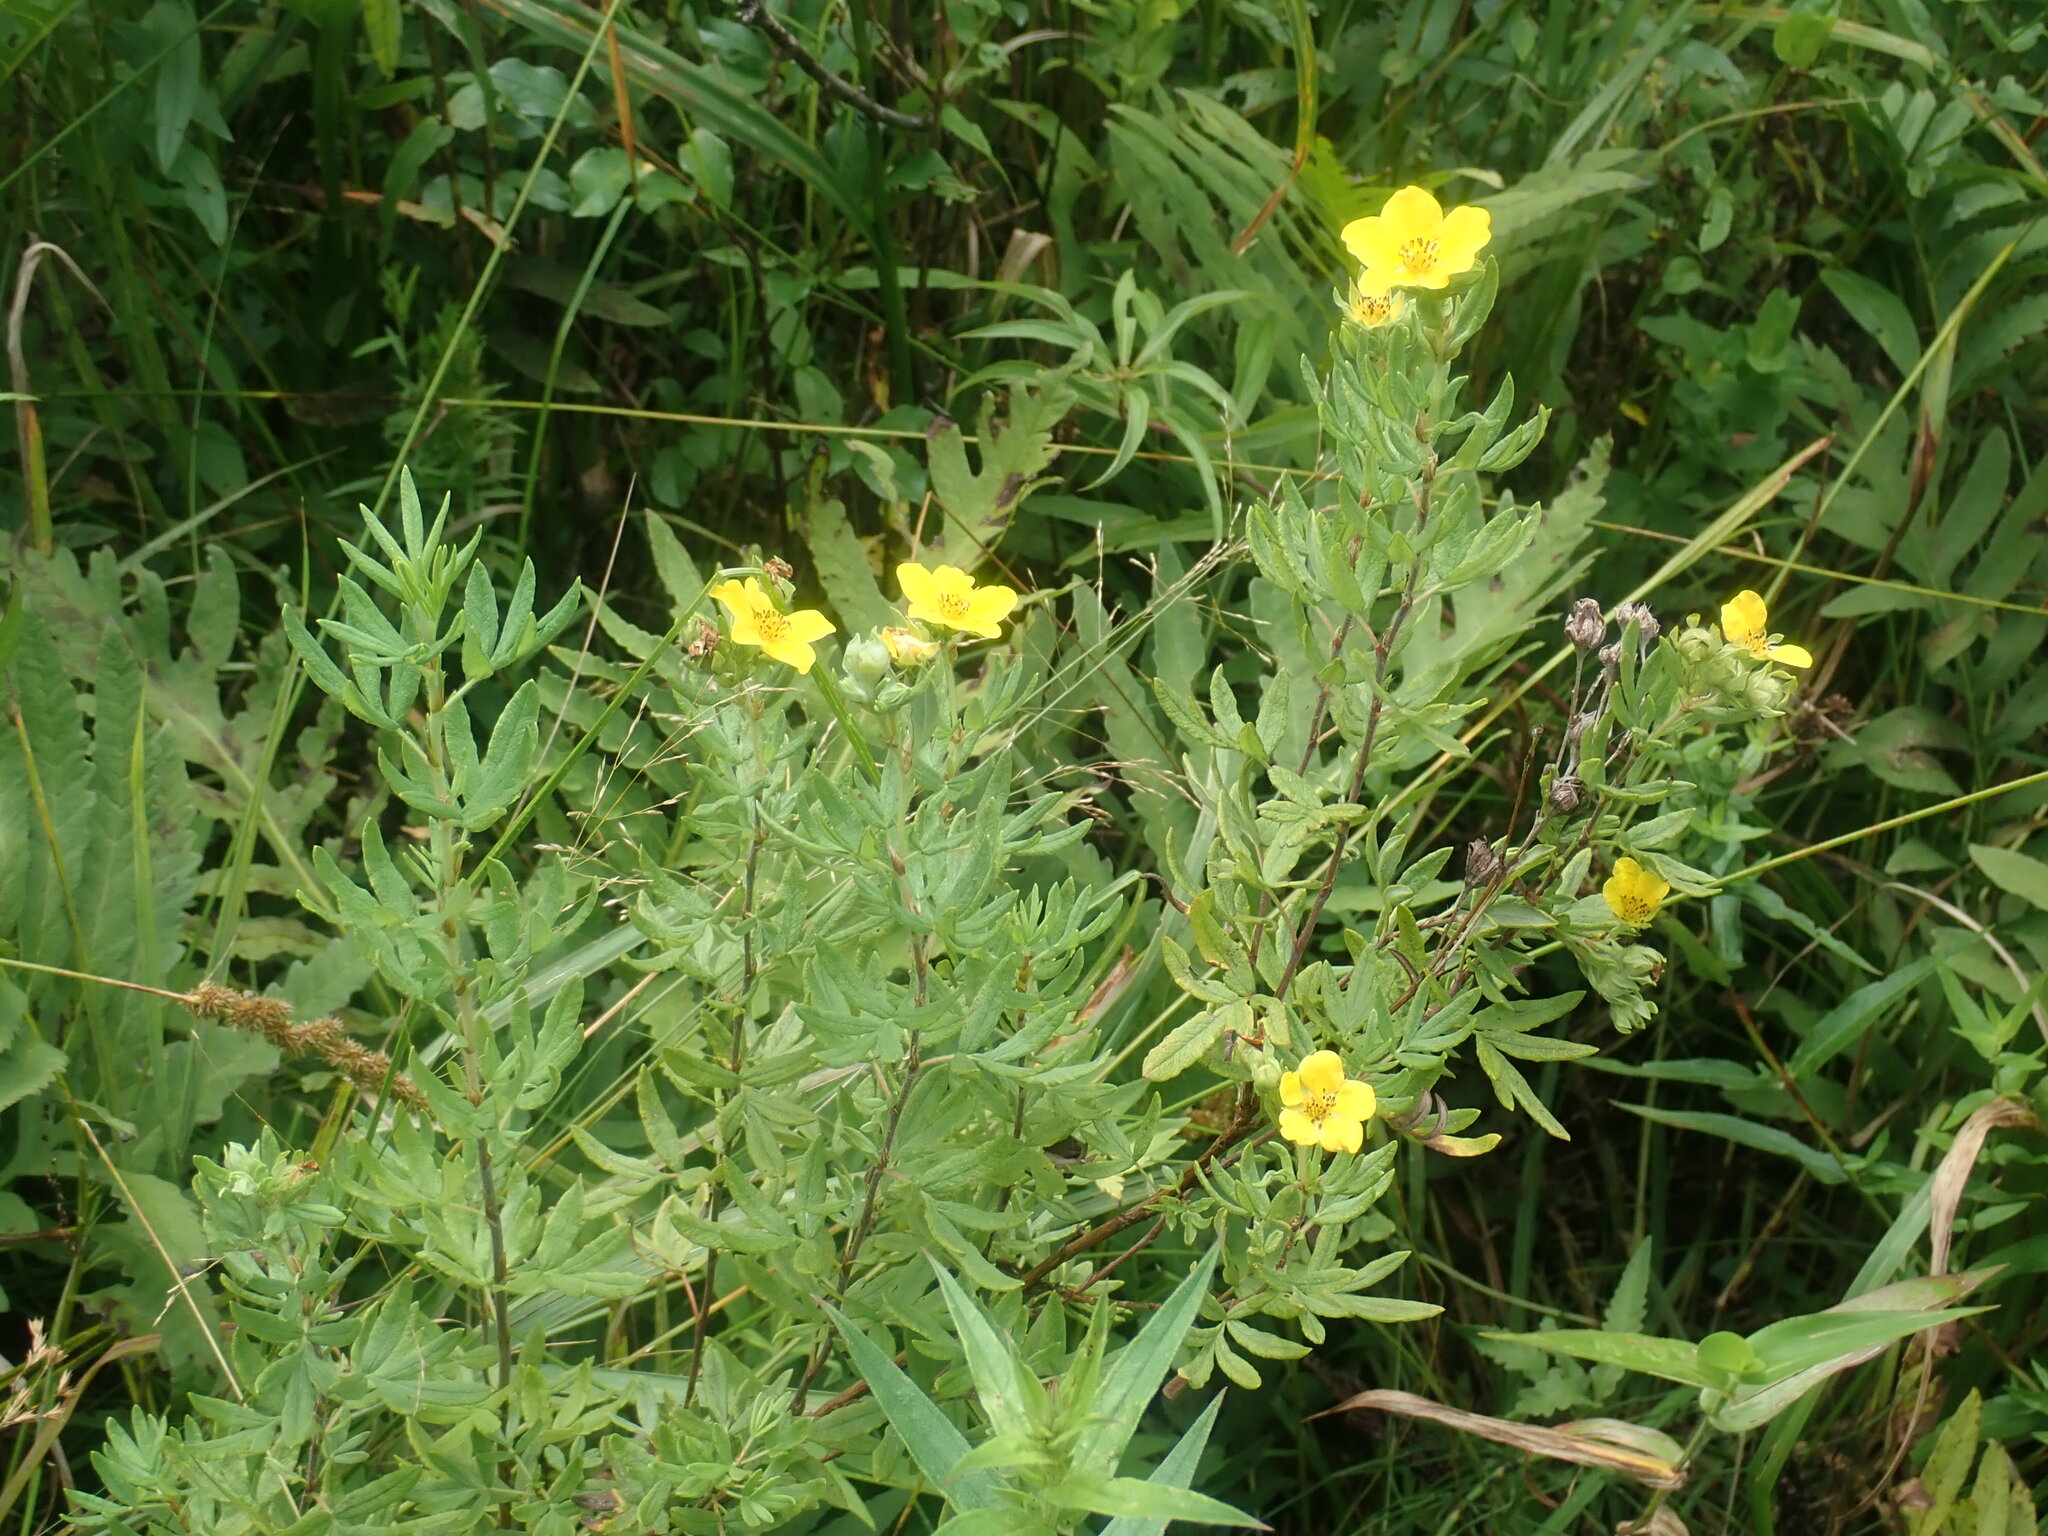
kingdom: Plantae
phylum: Tracheophyta
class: Magnoliopsida
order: Rosales
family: Rosaceae
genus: Dasiphora
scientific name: Dasiphora fruticosa
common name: Shrubby cinquefoil
